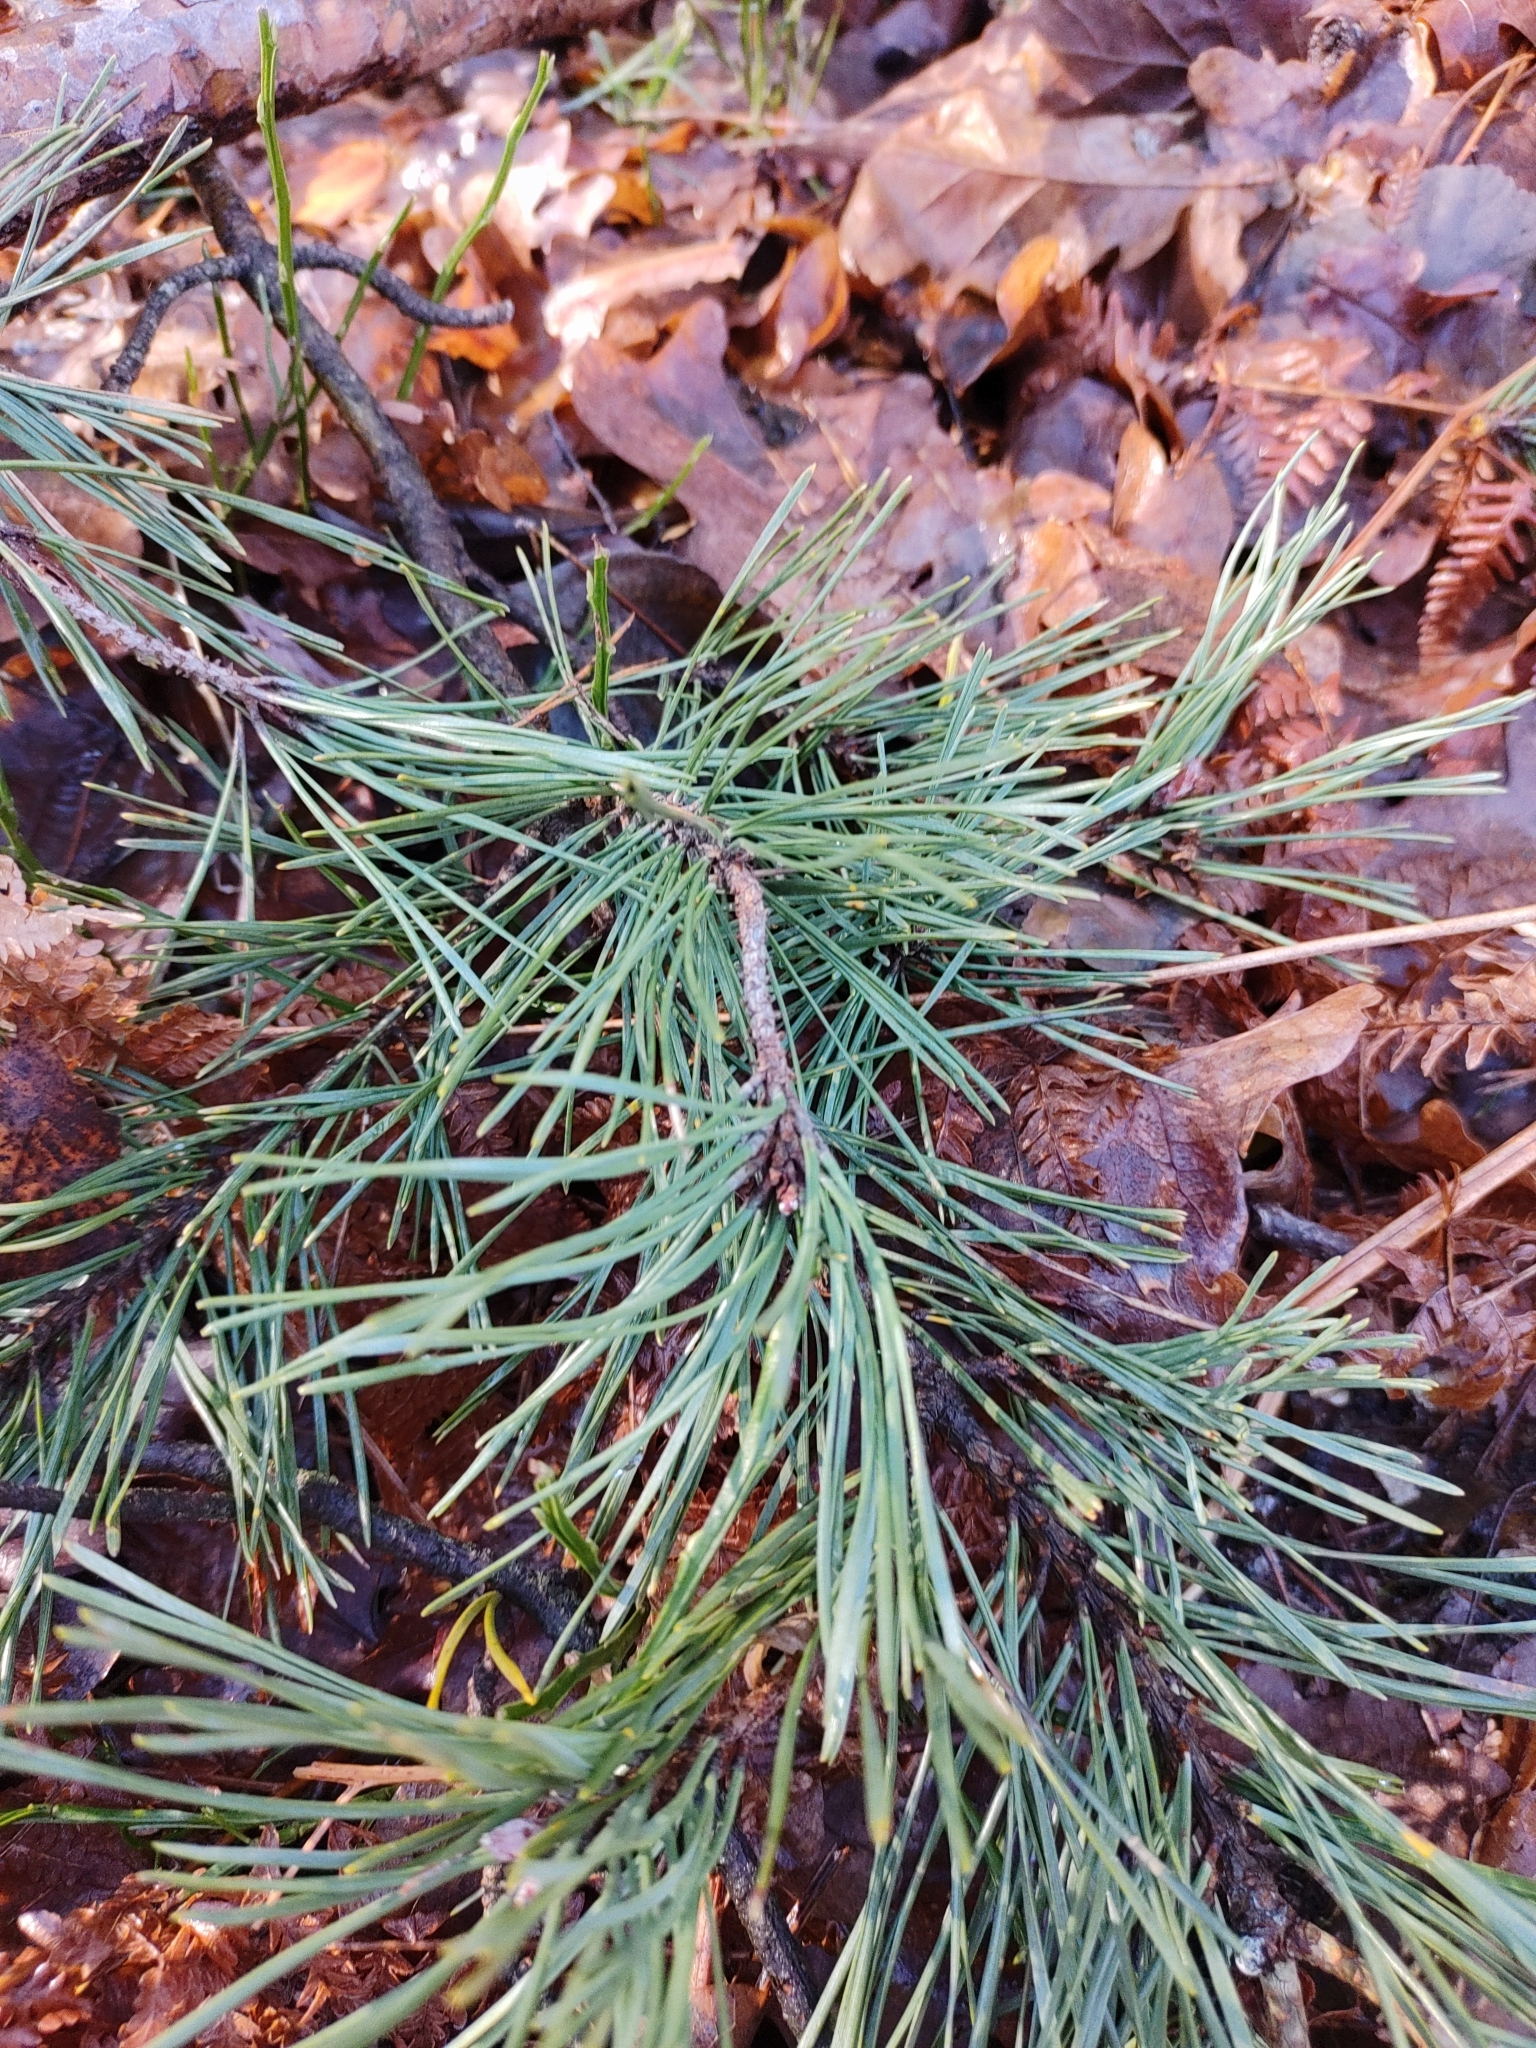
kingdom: Plantae
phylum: Tracheophyta
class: Pinopsida
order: Pinales
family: Pinaceae
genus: Pinus
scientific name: Pinus sylvestris
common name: Scots pine
